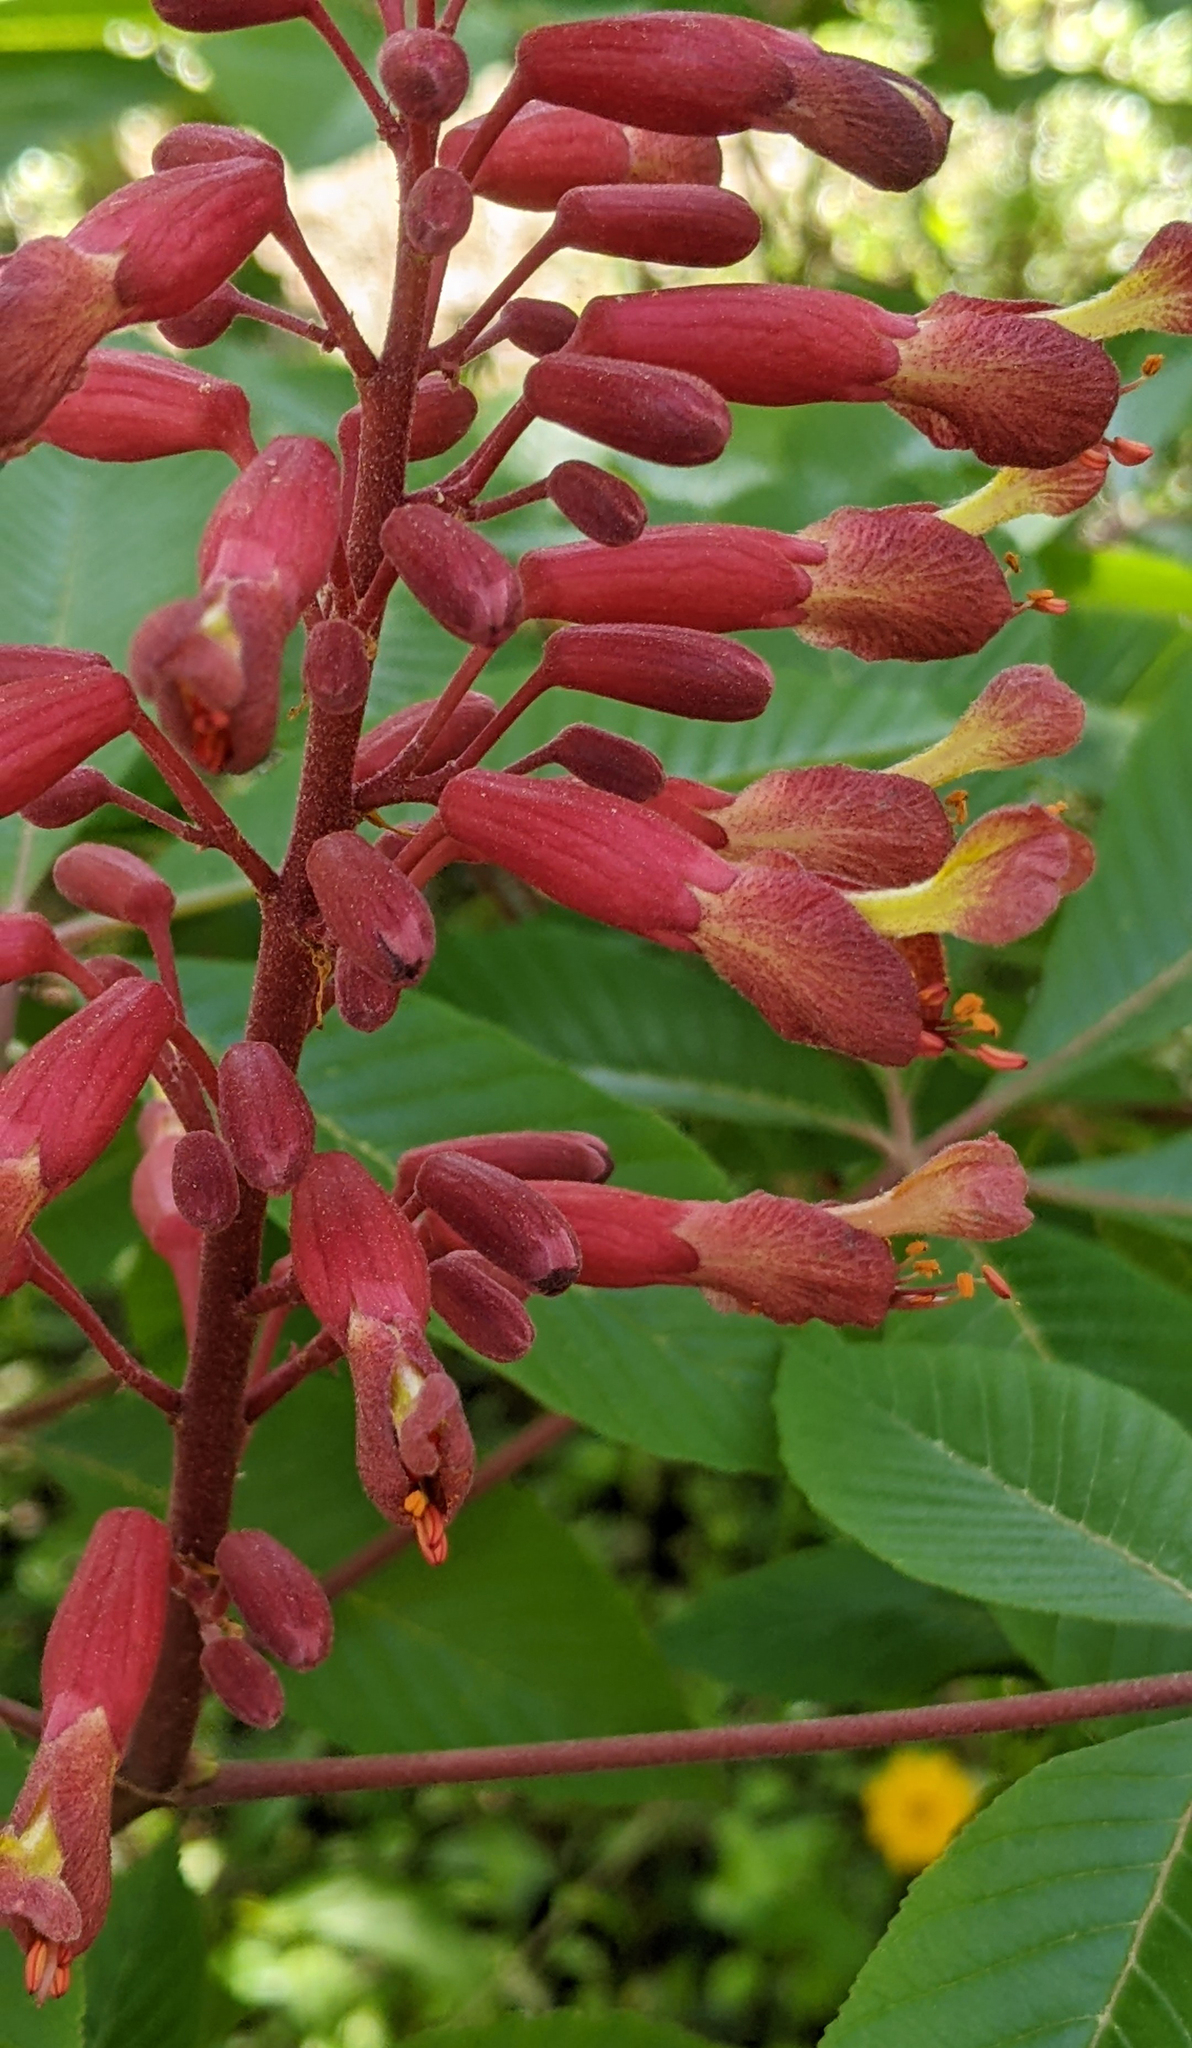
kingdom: Plantae
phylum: Tracheophyta
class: Magnoliopsida
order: Sapindales
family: Sapindaceae
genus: Aesculus
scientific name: Aesculus pavia
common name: Red buckeye
